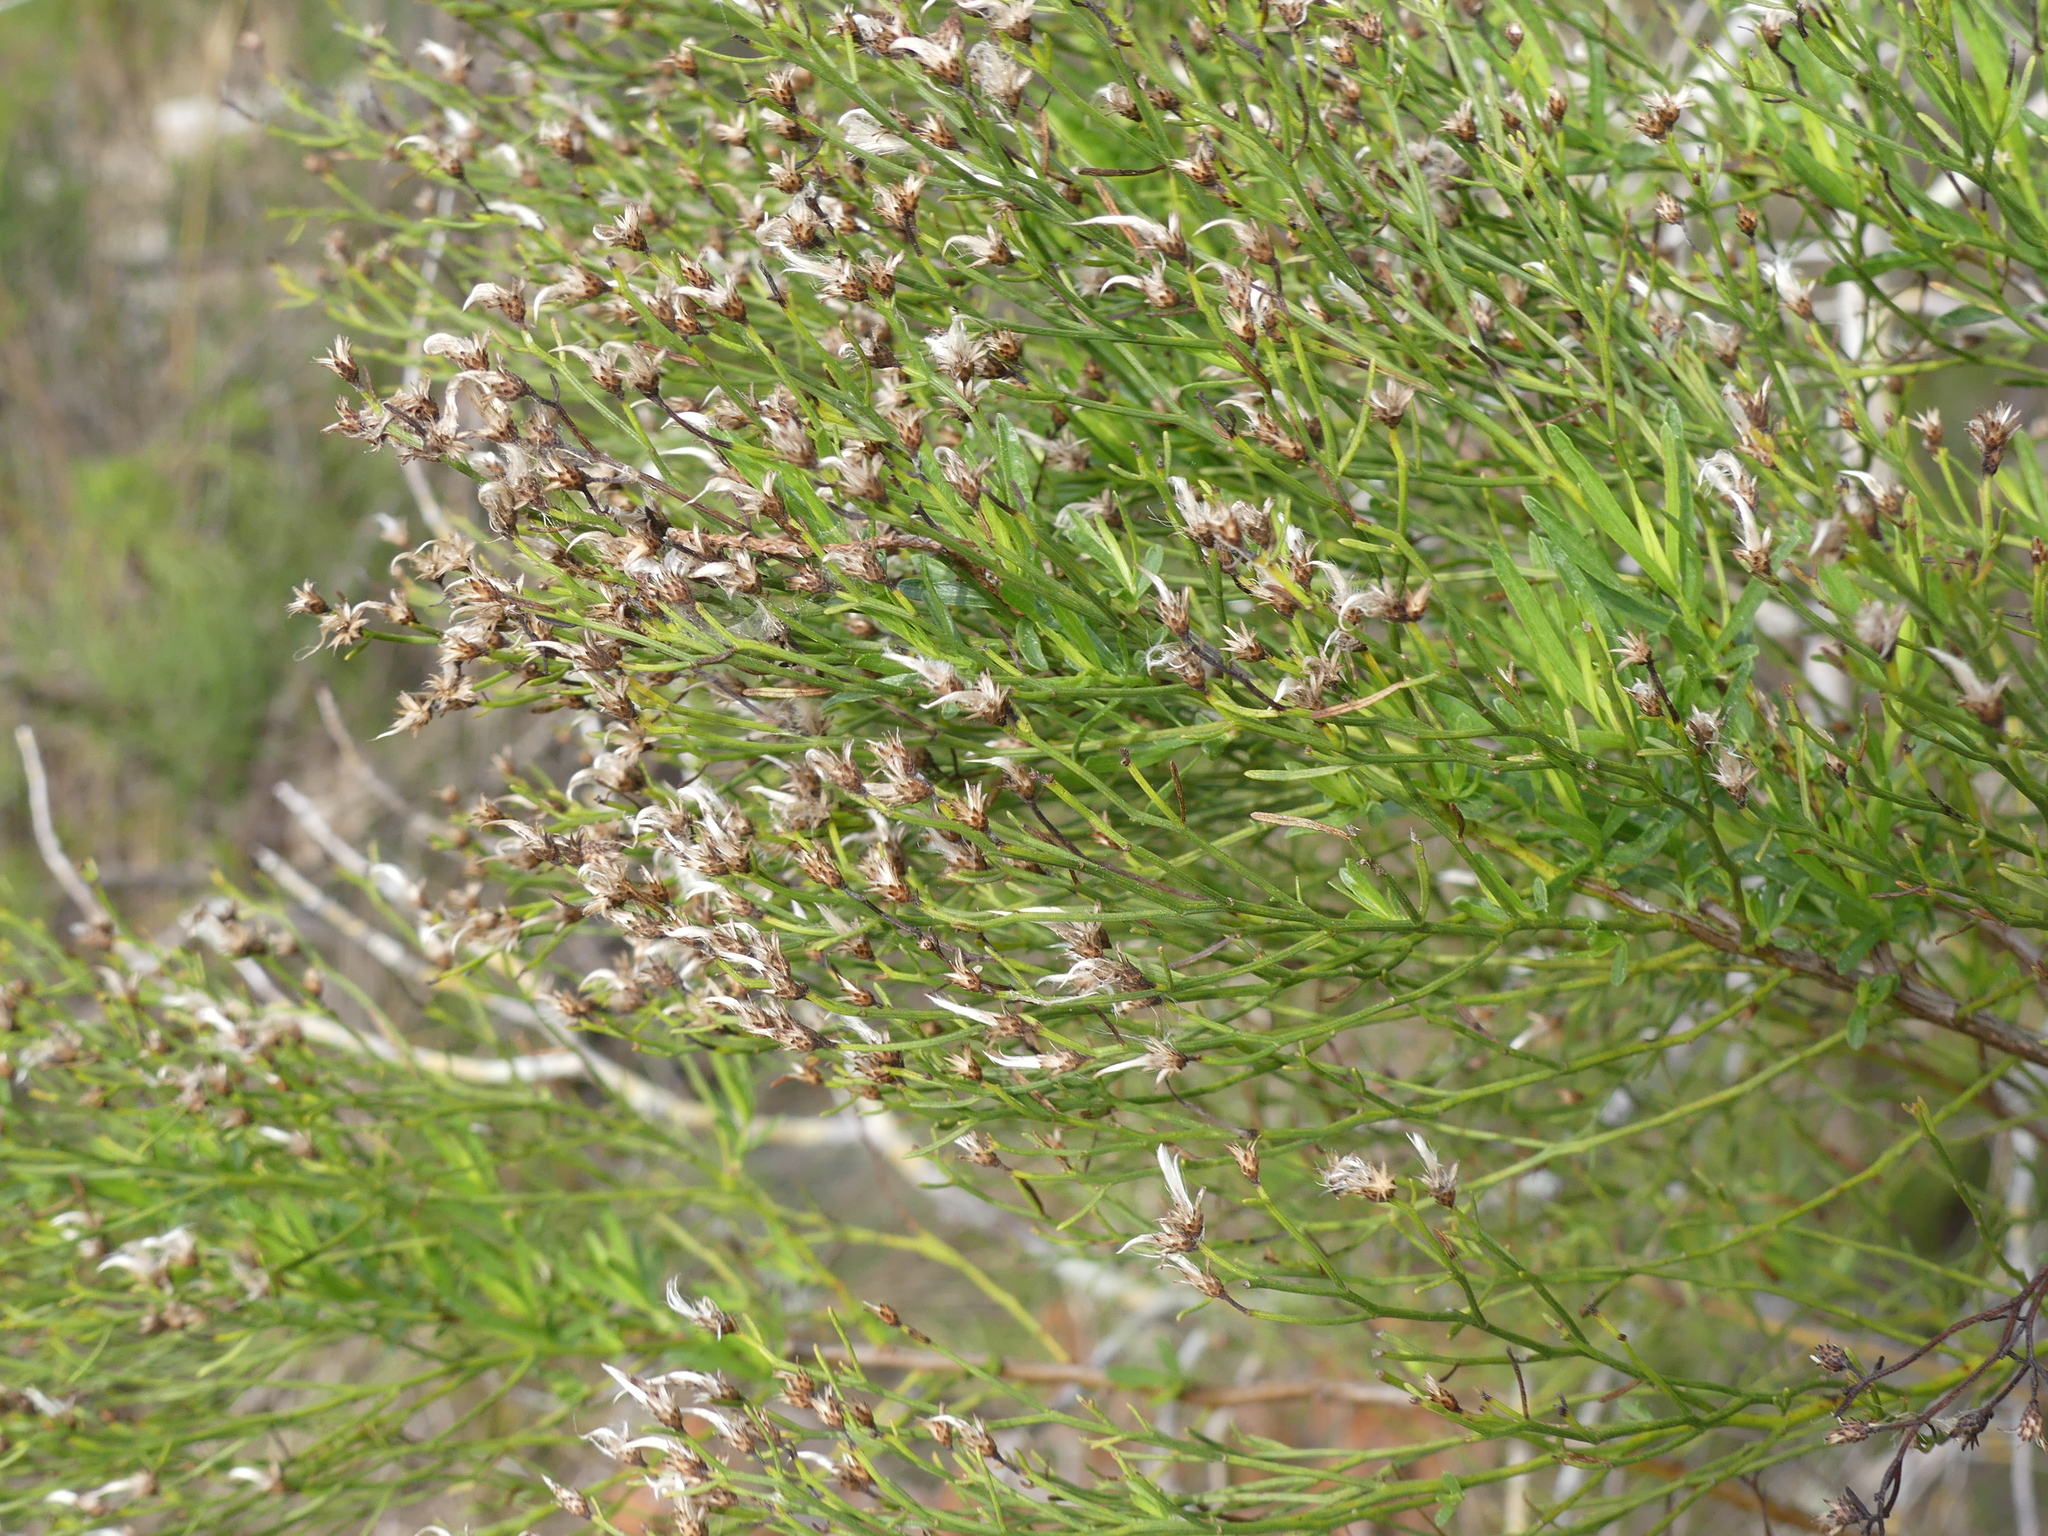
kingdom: Plantae
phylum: Tracheophyta
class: Magnoliopsida
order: Asterales
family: Asteraceae
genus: Baccharis
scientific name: Baccharis angustifolia
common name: Narrow-leaf baccharis
